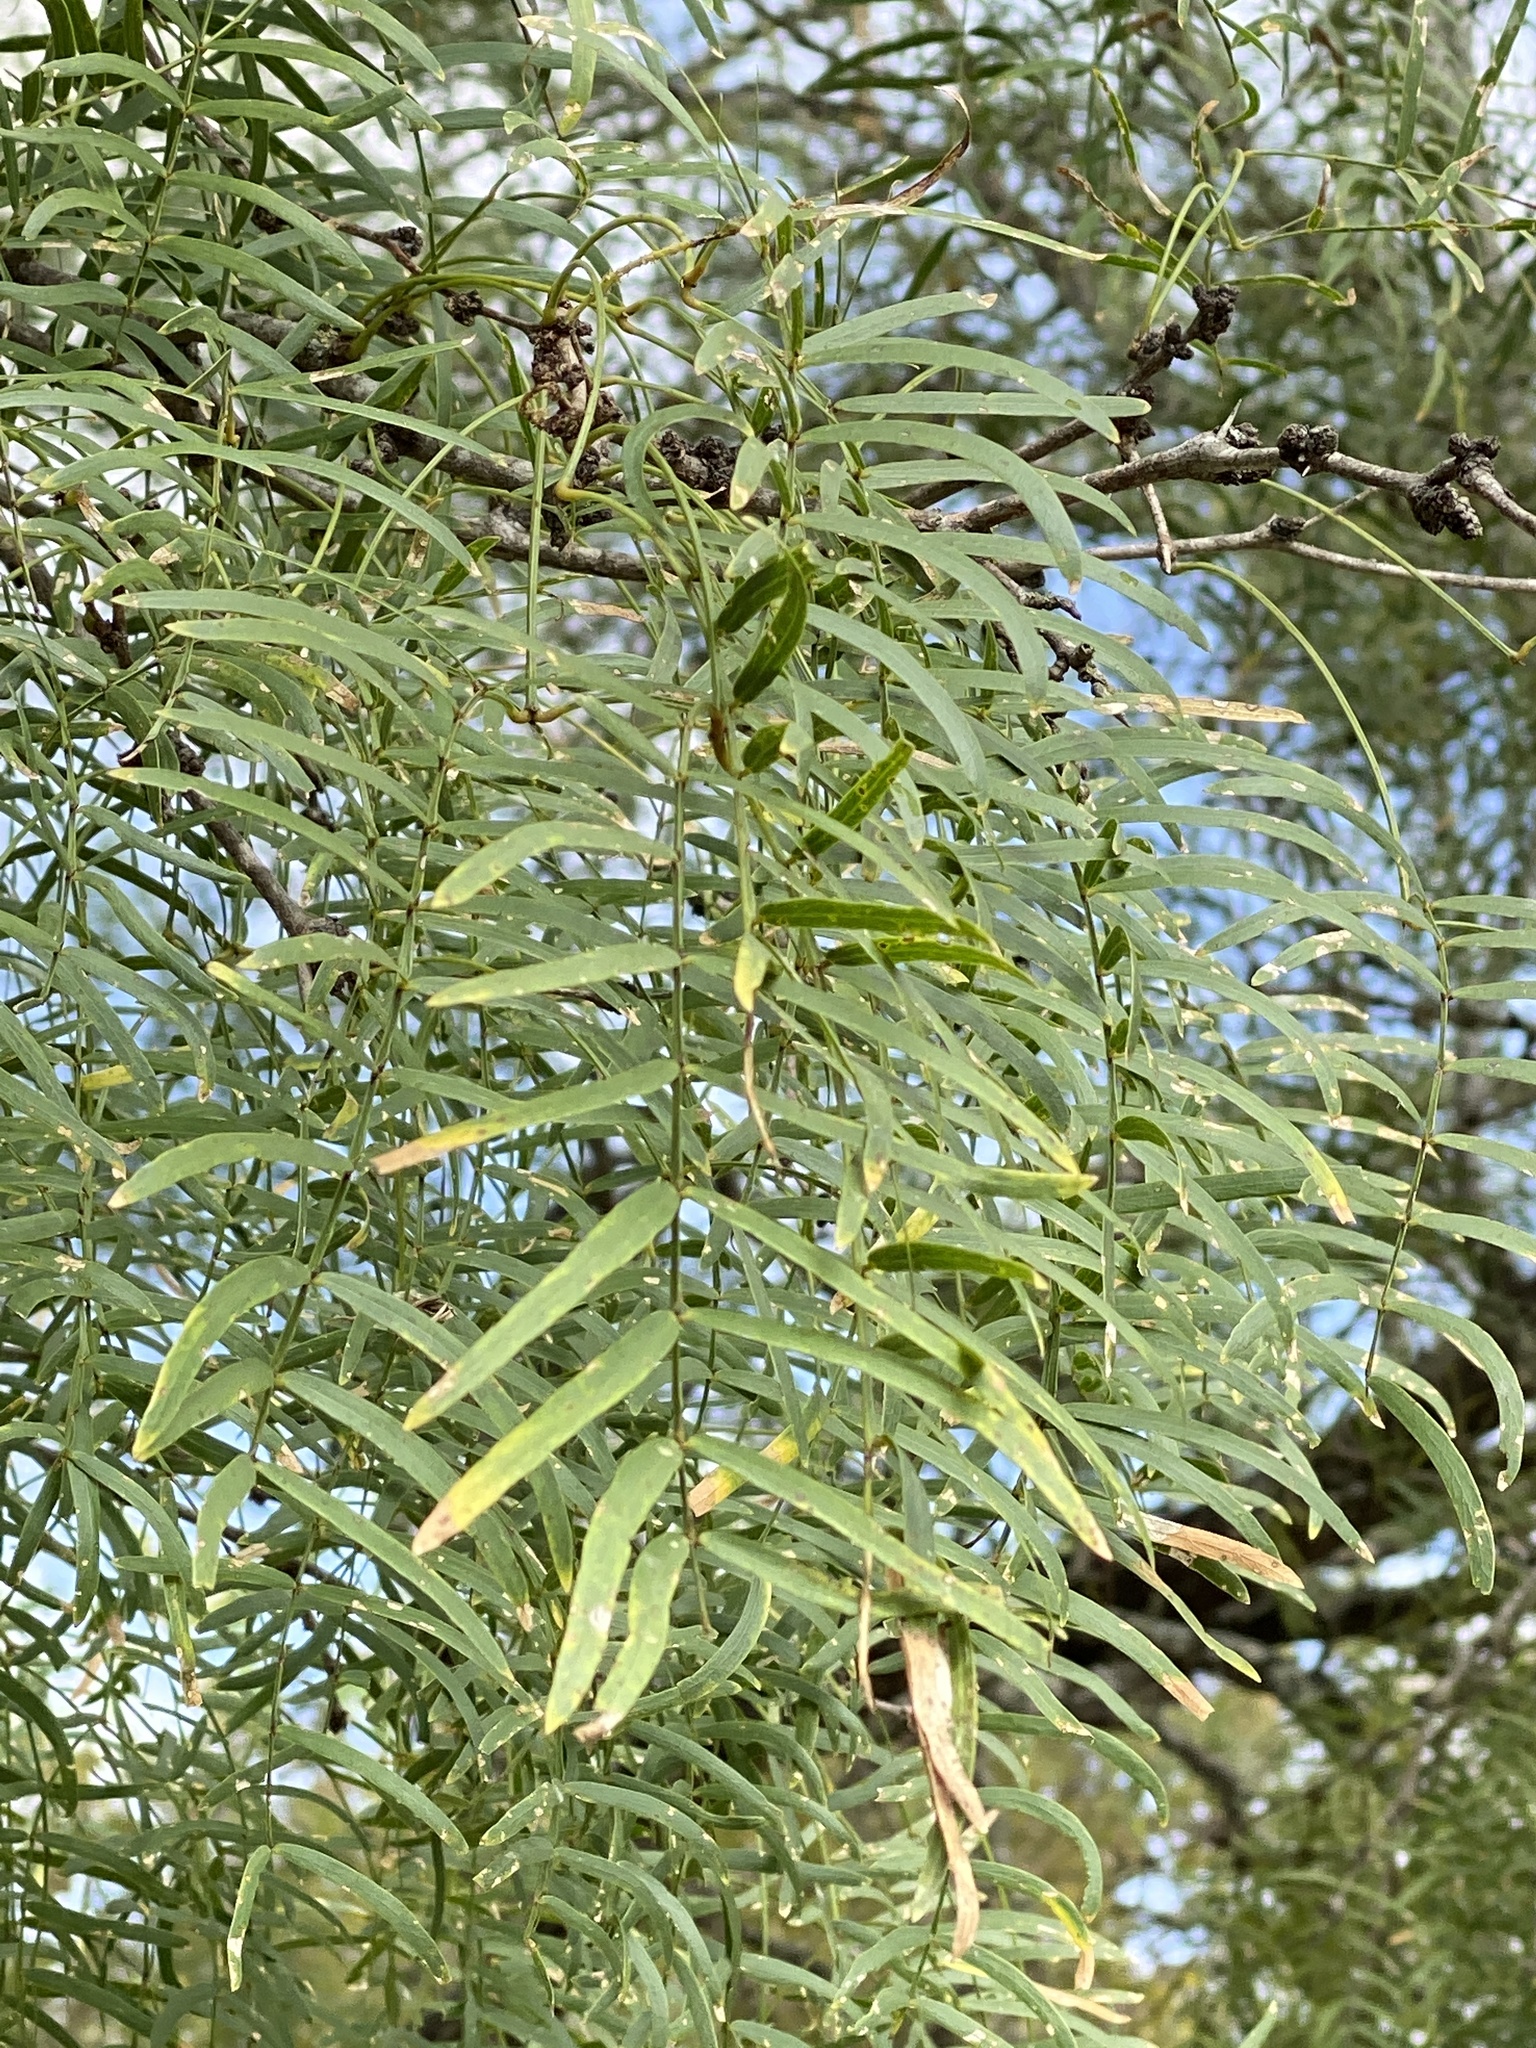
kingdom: Plantae
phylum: Tracheophyta
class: Magnoliopsida
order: Fabales
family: Fabaceae
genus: Prosopis
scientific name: Prosopis glandulosa
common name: Honey mesquite
